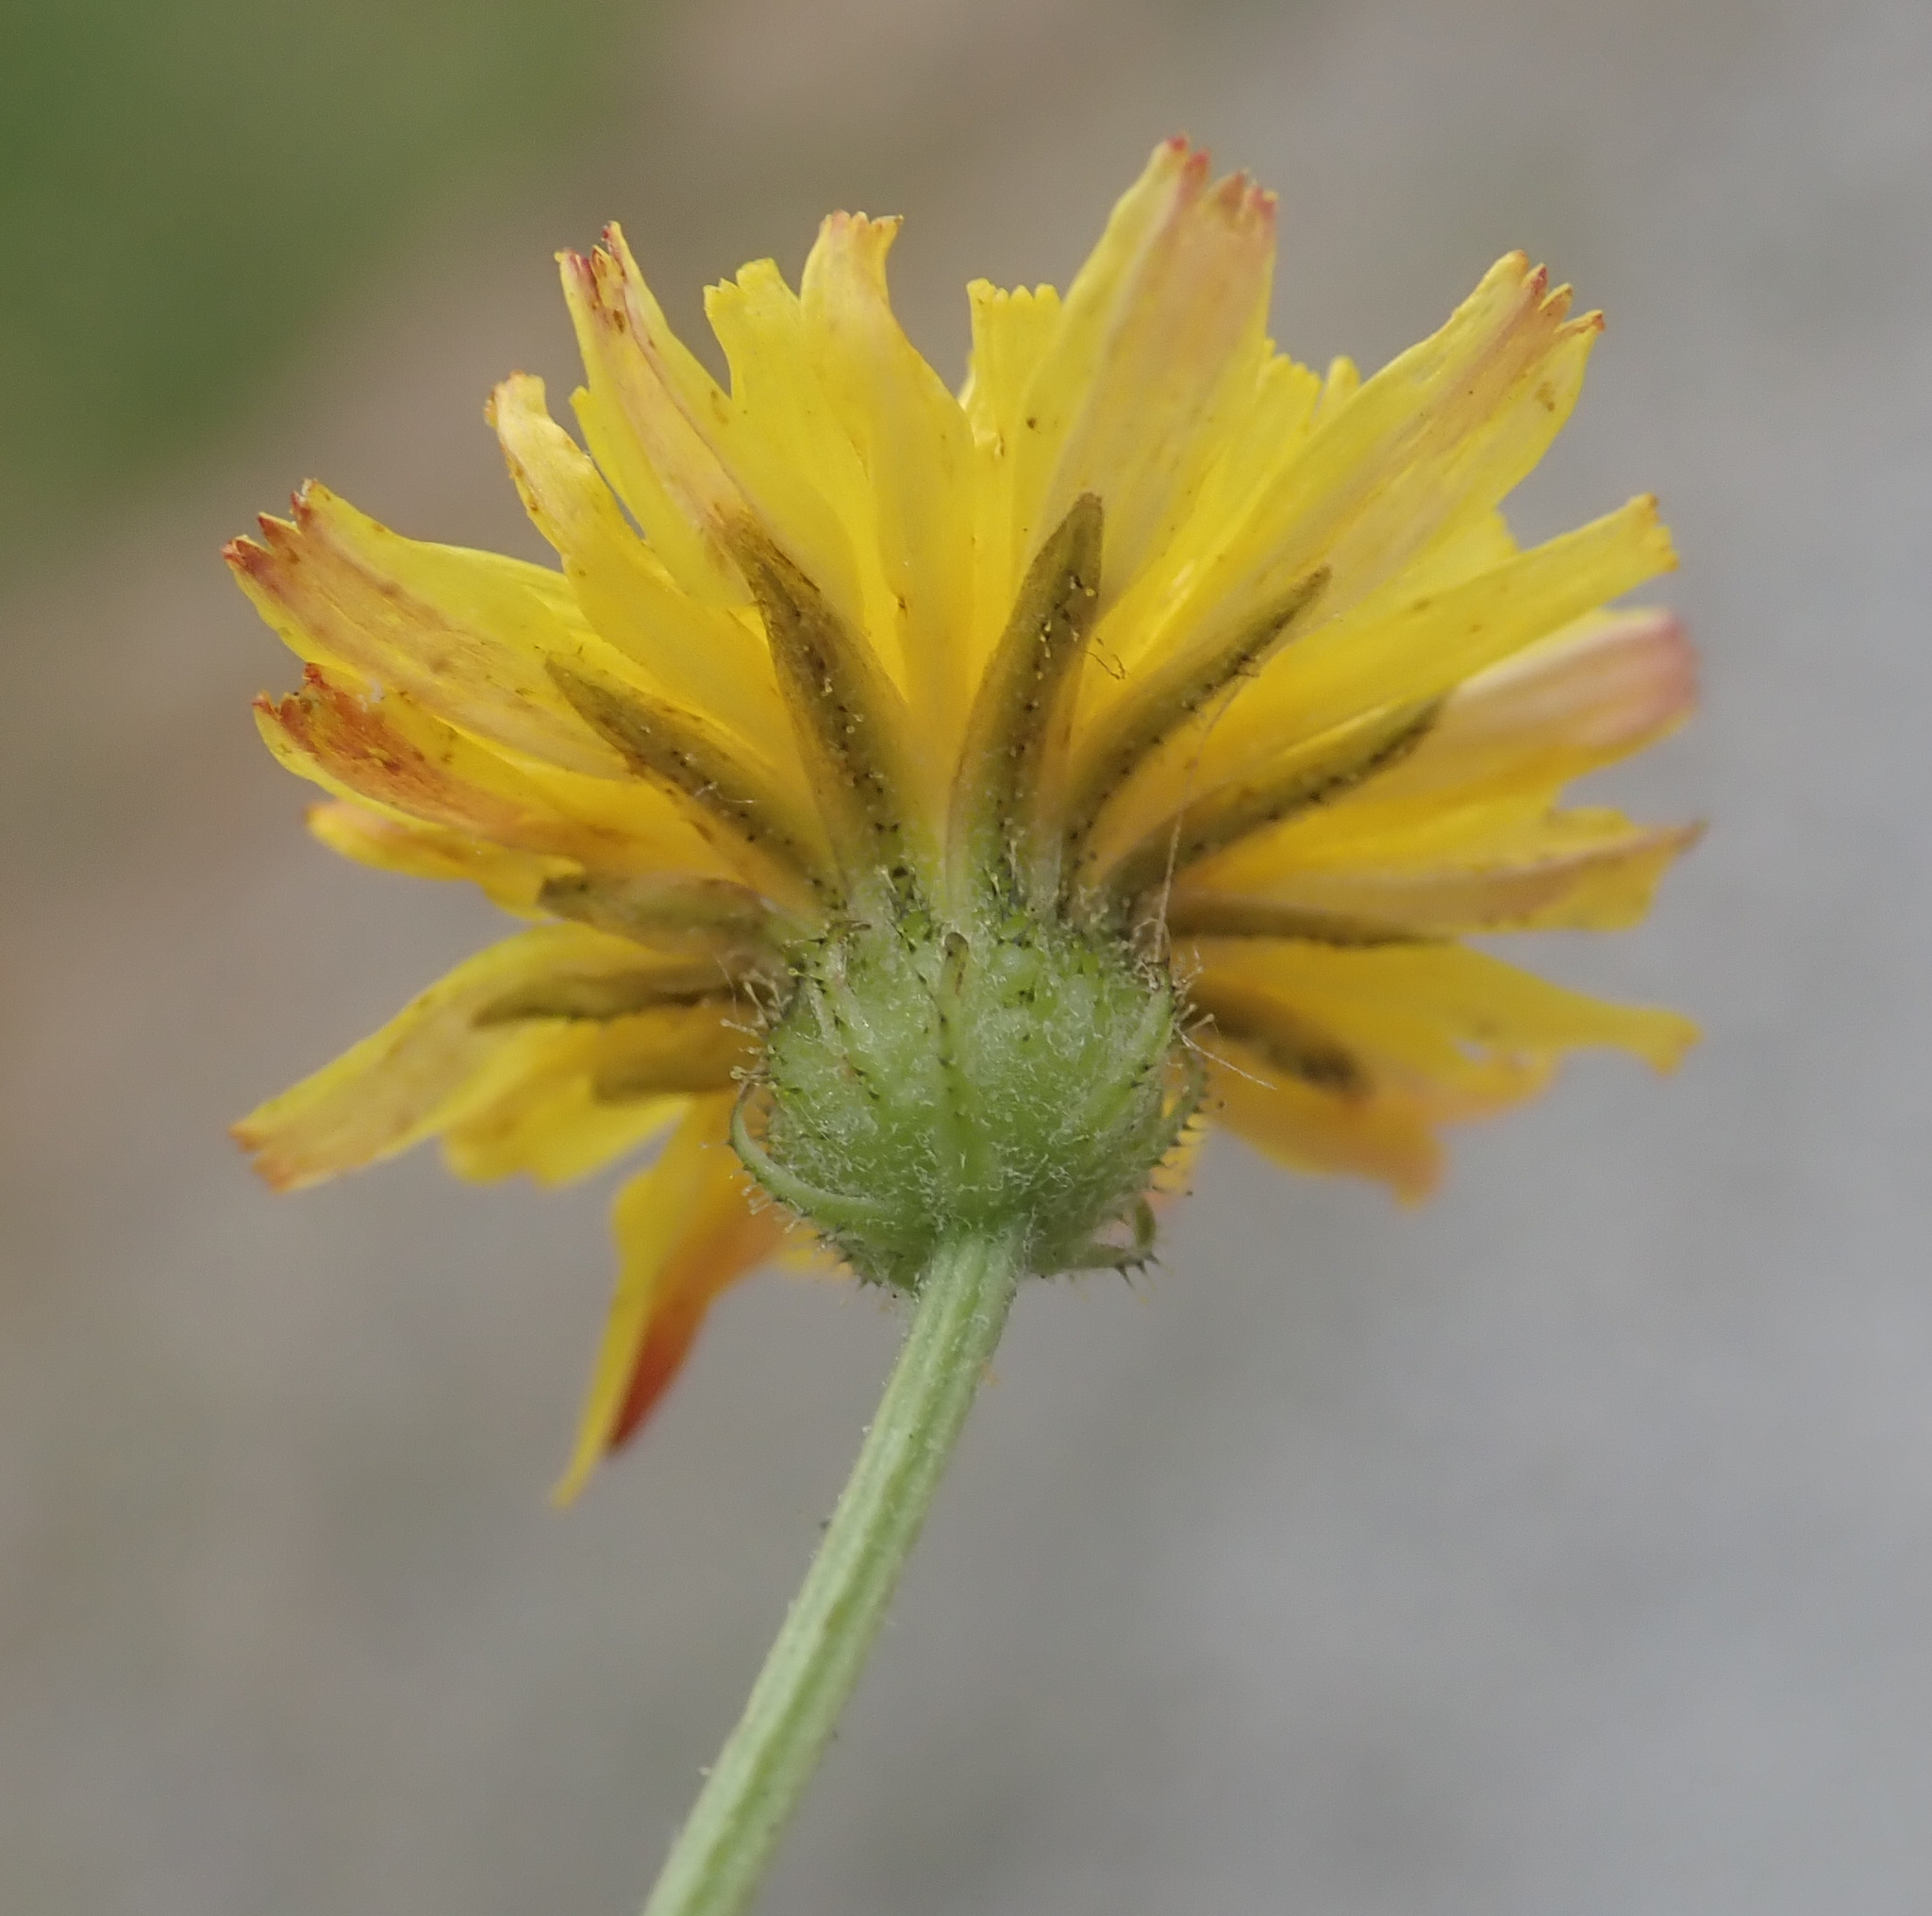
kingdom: Plantae
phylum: Tracheophyta
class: Magnoliopsida
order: Asterales
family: Asteraceae
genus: Crepis
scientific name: Crepis capillaris
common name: Smooth hawksbeard
